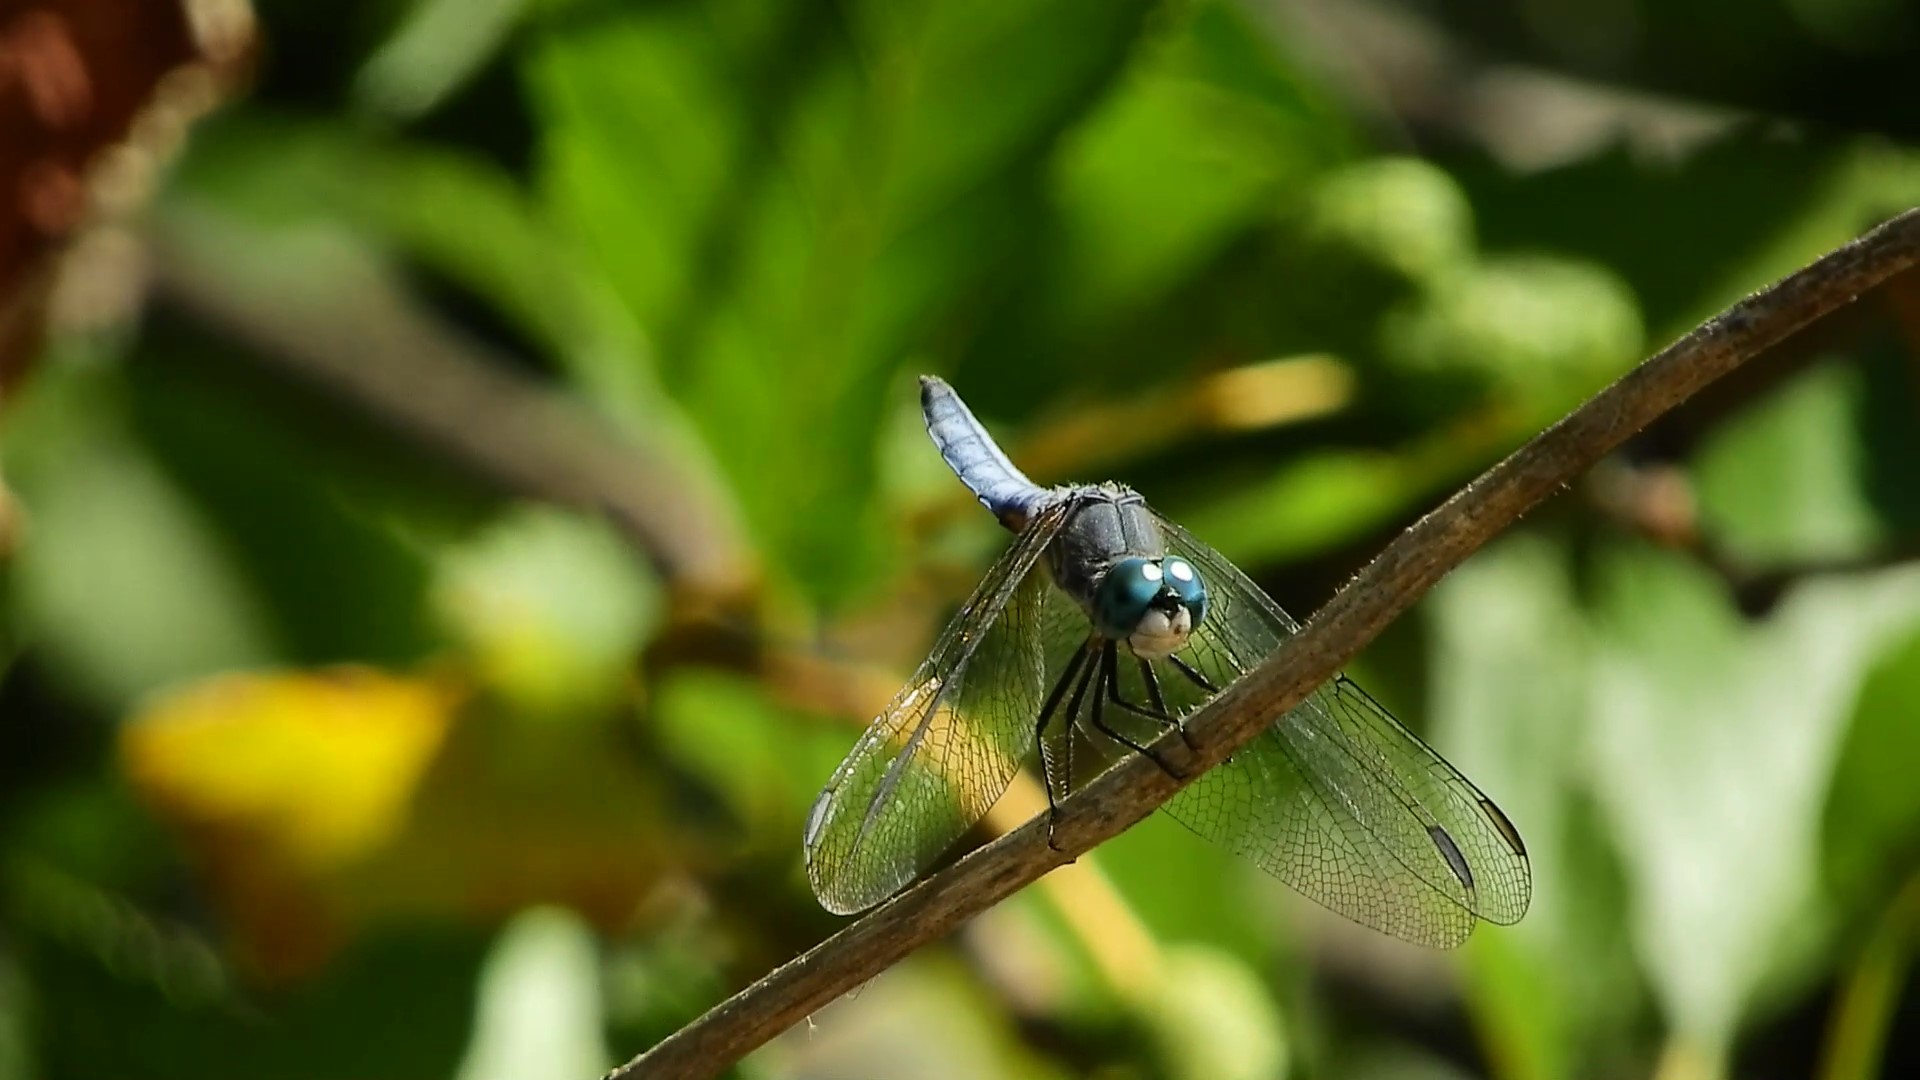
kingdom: Animalia
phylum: Arthropoda
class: Insecta
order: Odonata
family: Libellulidae
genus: Pachydiplax
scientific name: Pachydiplax longipennis
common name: Blue dasher
